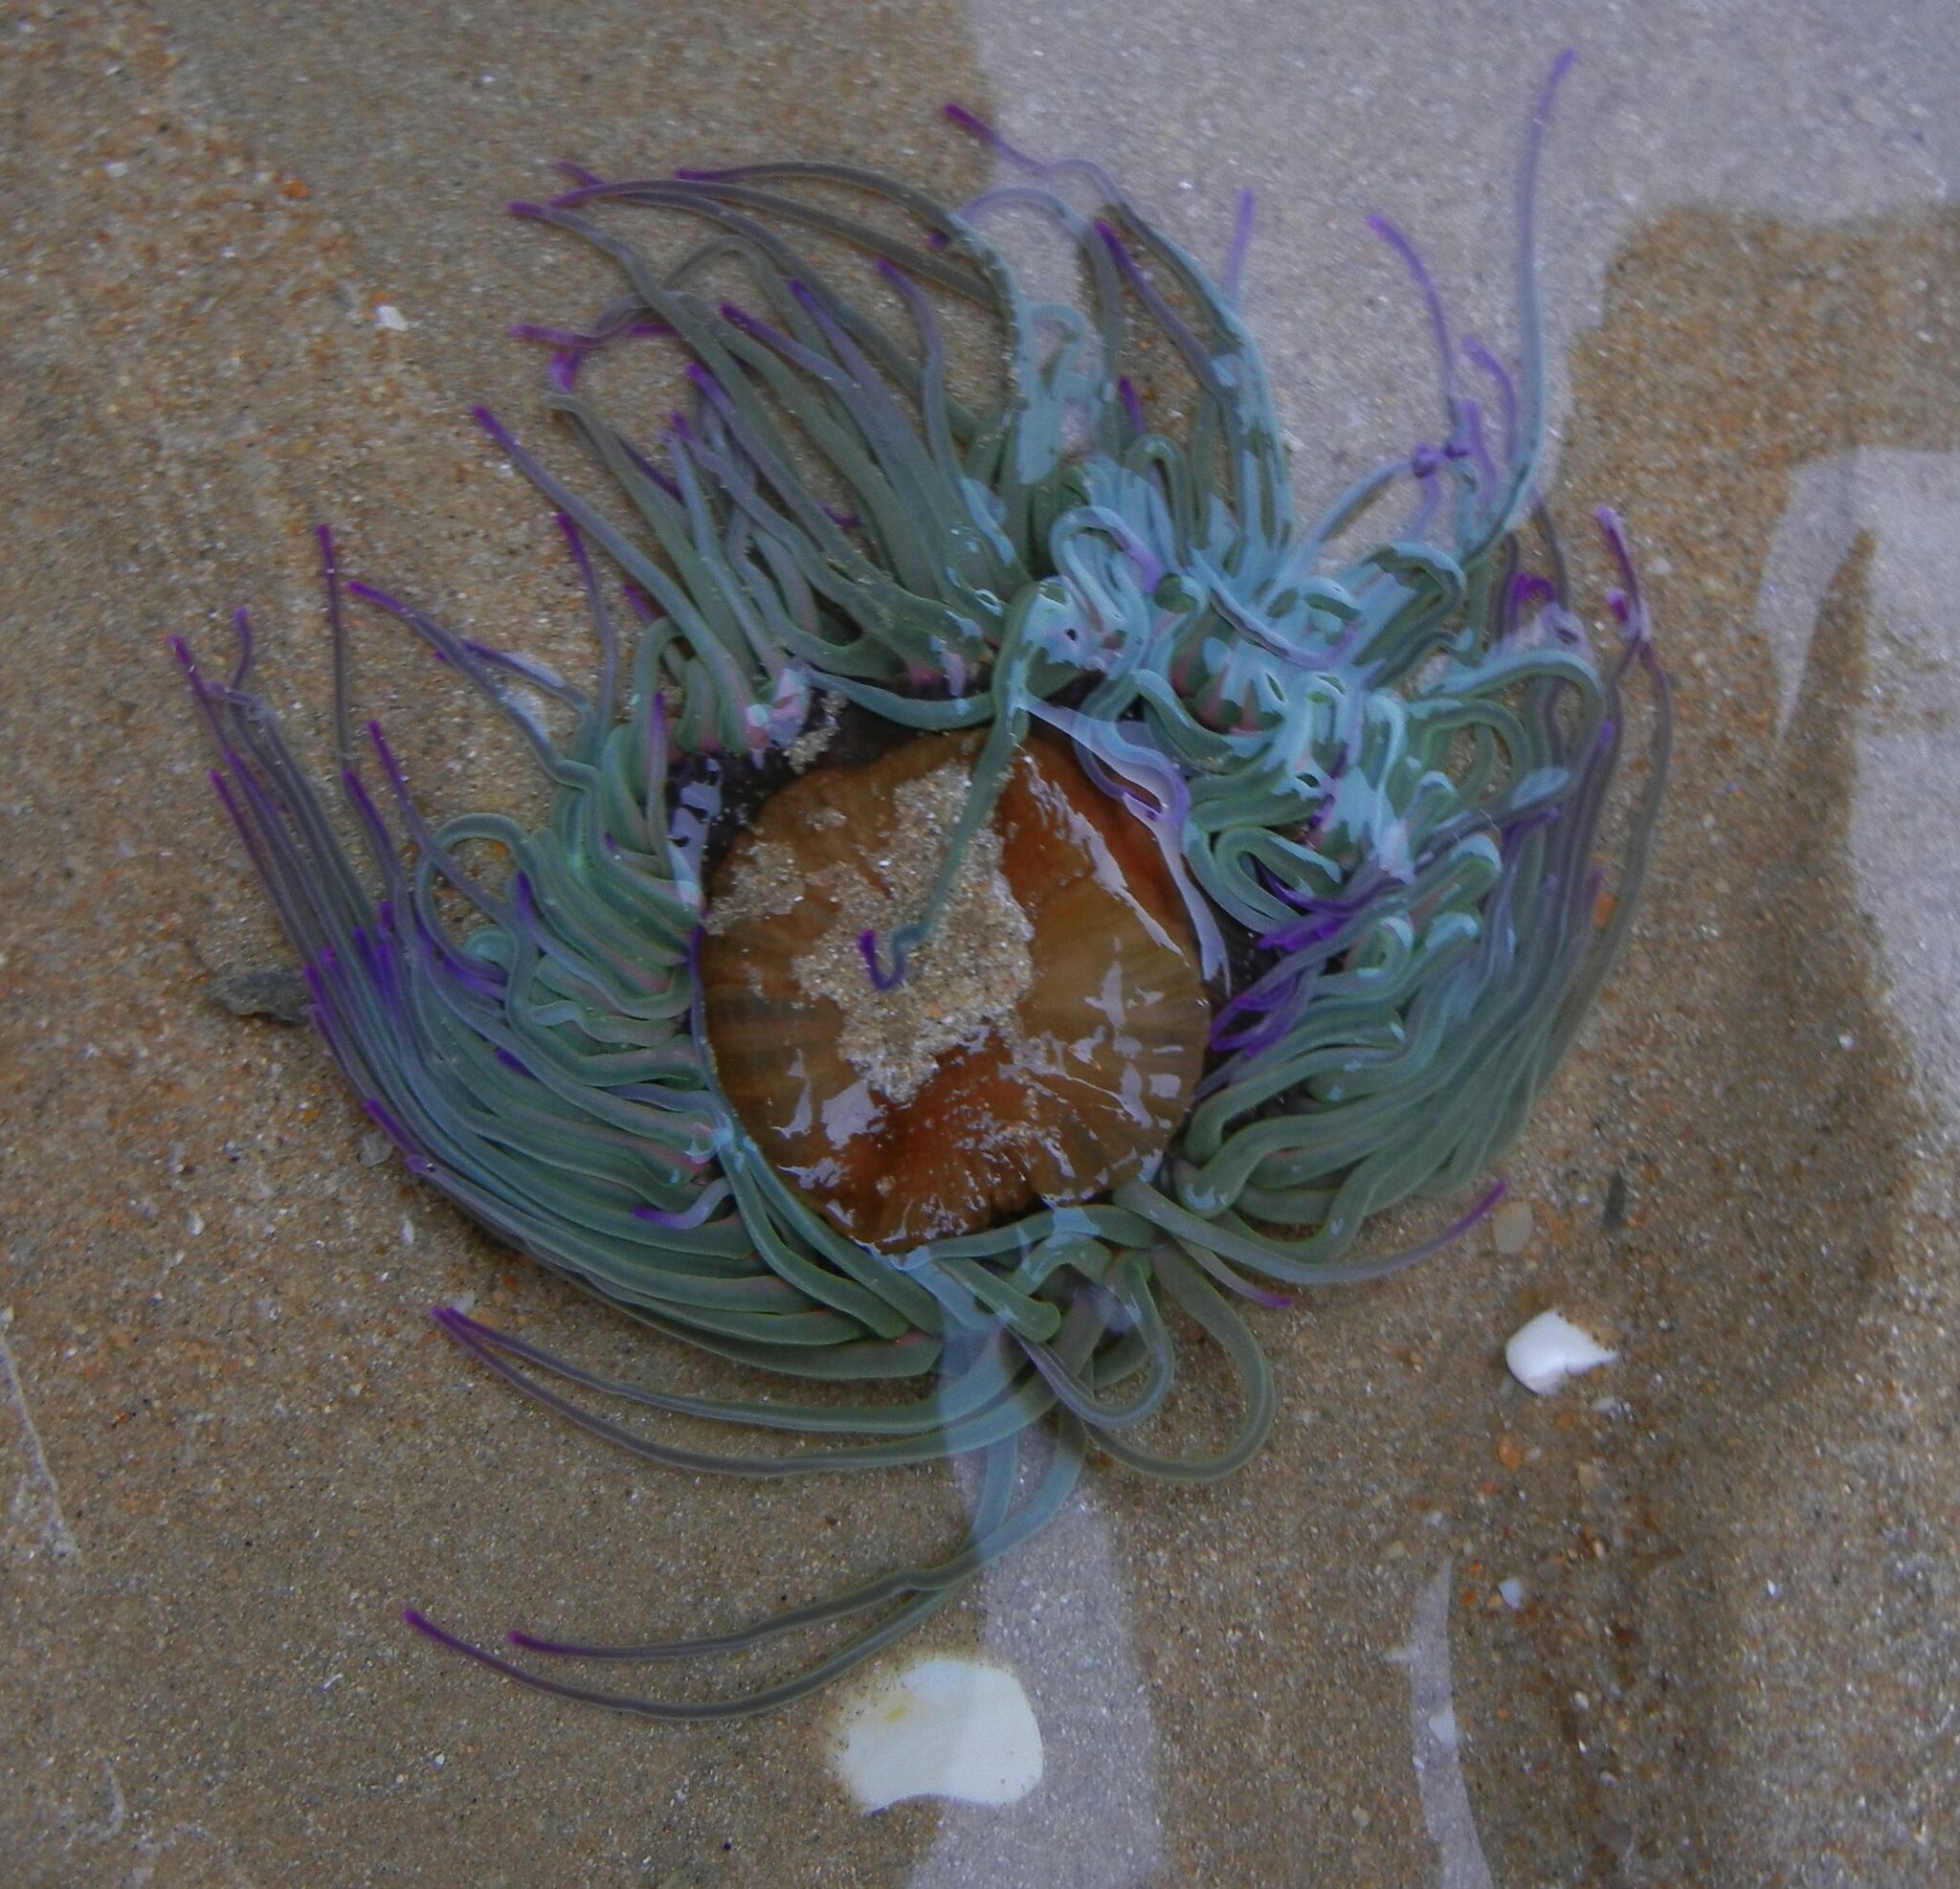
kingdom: Animalia
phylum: Cnidaria
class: Anthozoa
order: Actiniaria
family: Actiniidae
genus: Anemonia
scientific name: Anemonia viridis
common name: Snakelocks anemone
